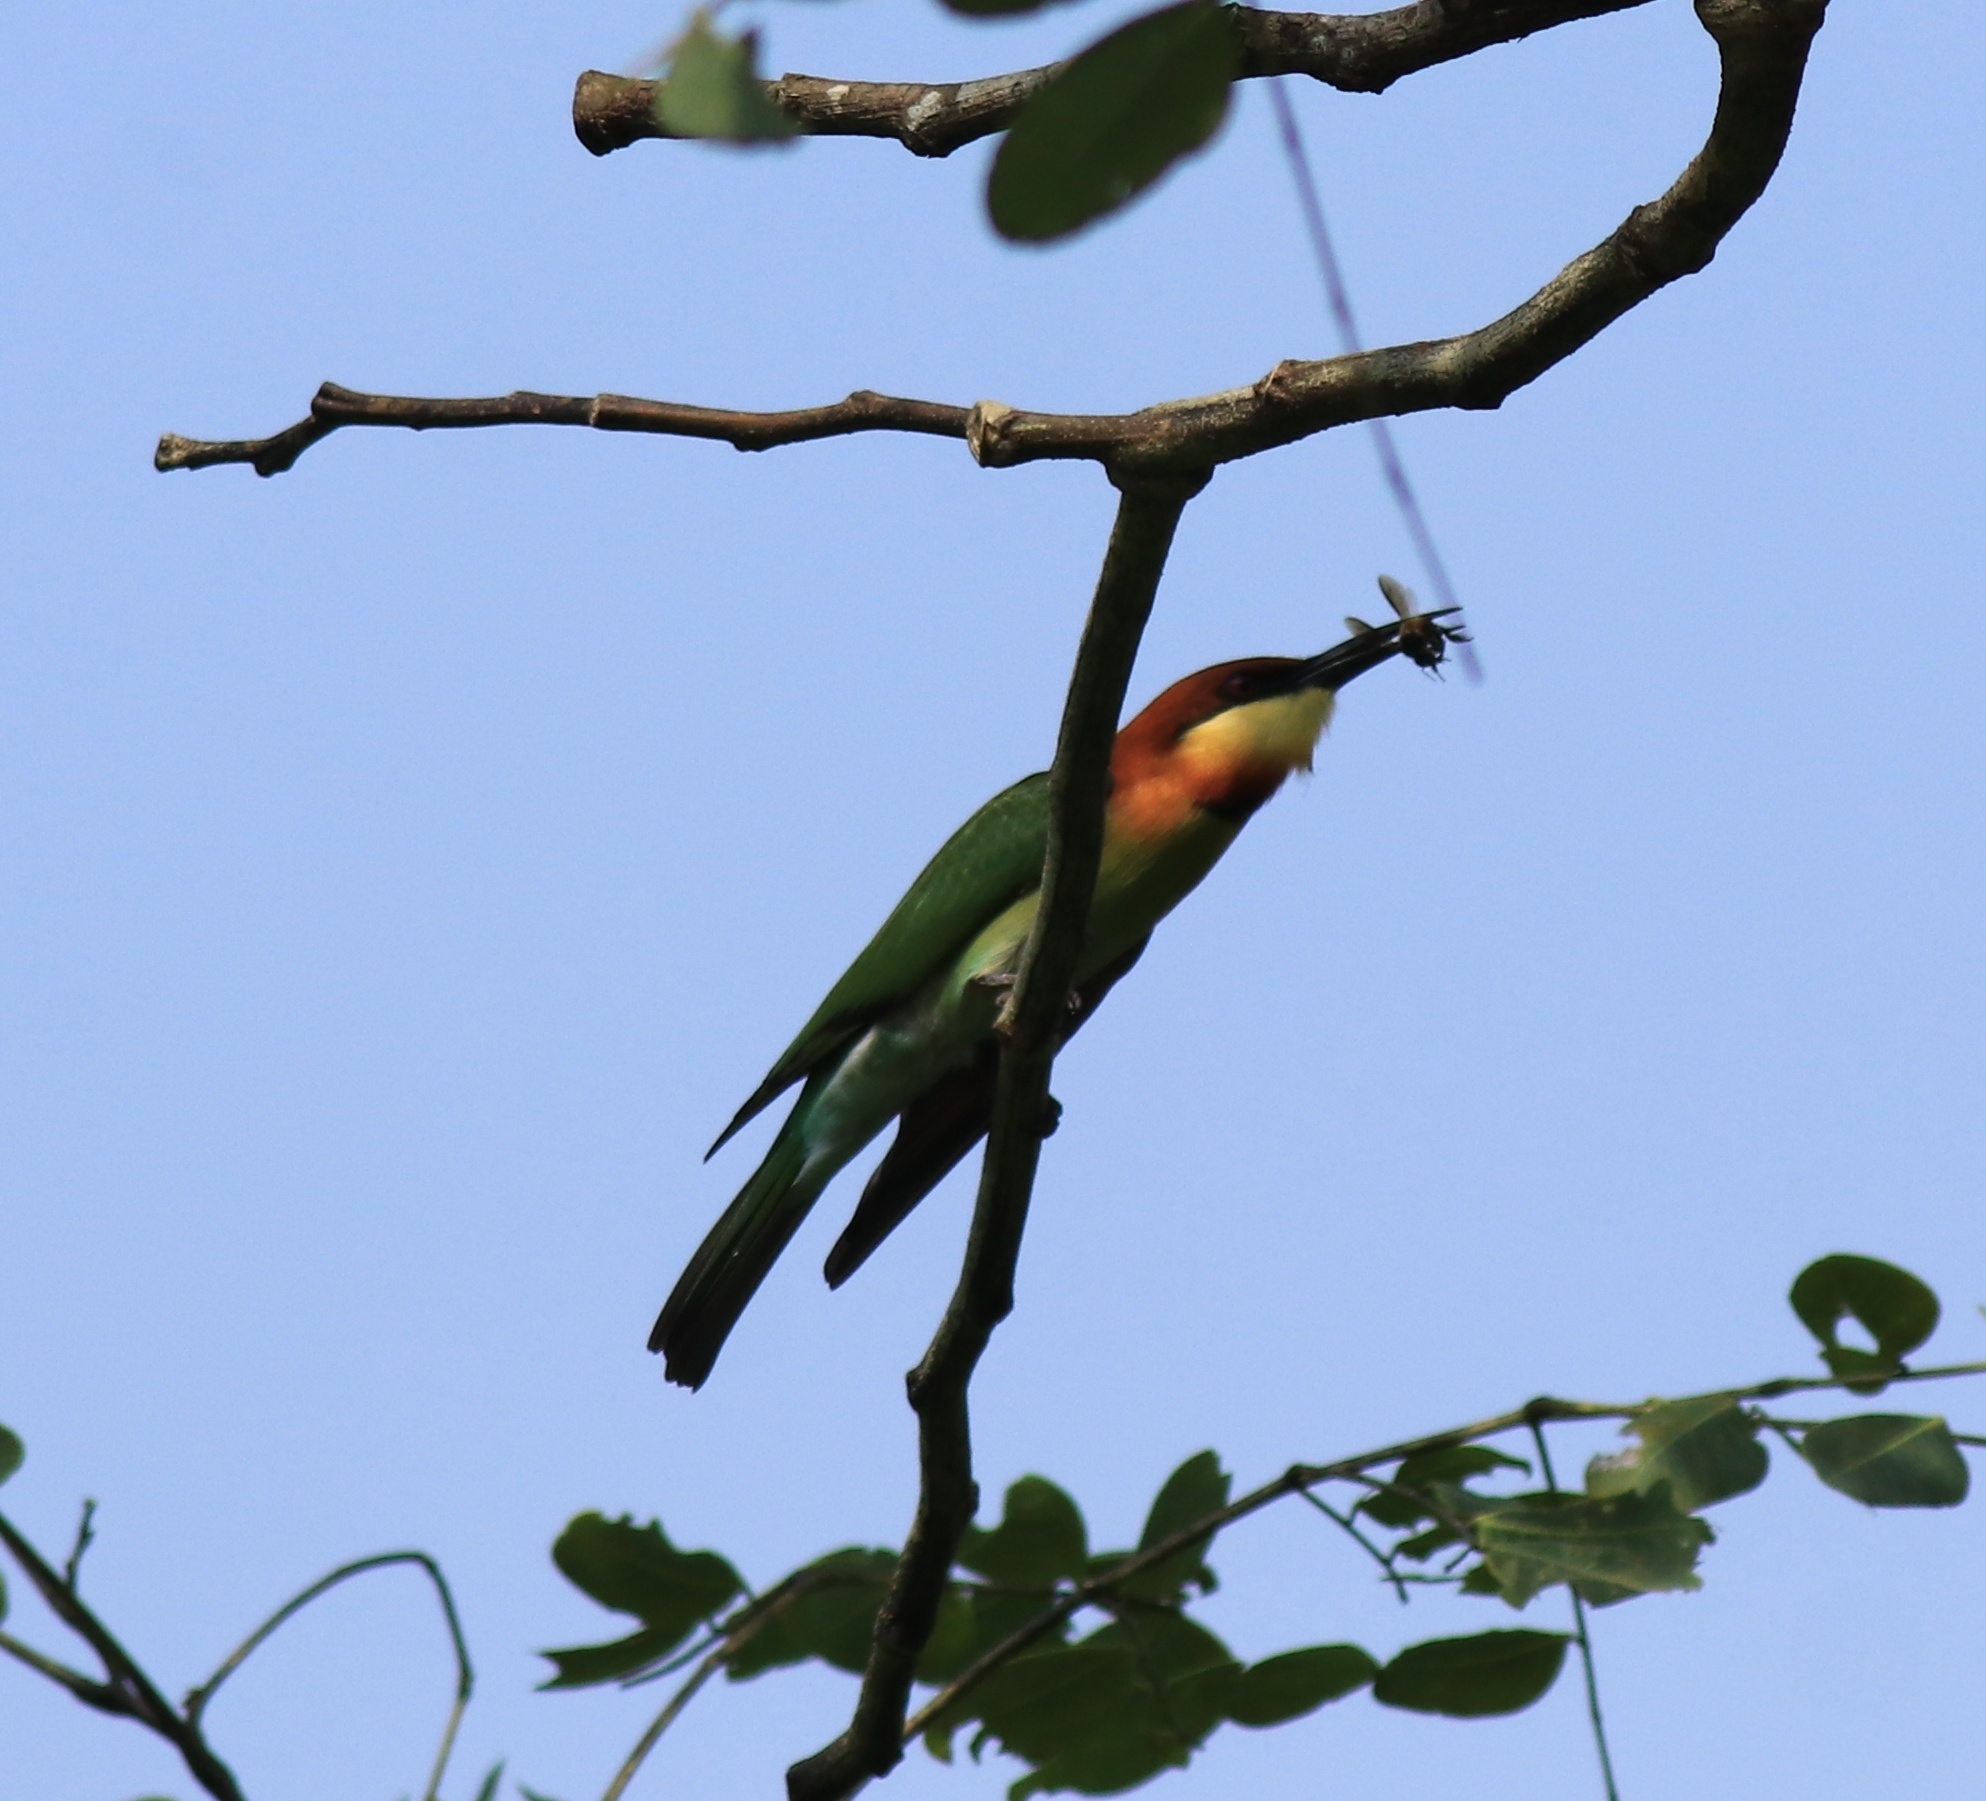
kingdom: Animalia
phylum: Chordata
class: Aves
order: Coraciiformes
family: Meropidae
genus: Merops
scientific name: Merops leschenaulti
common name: Chestnut-headed bee-eater
